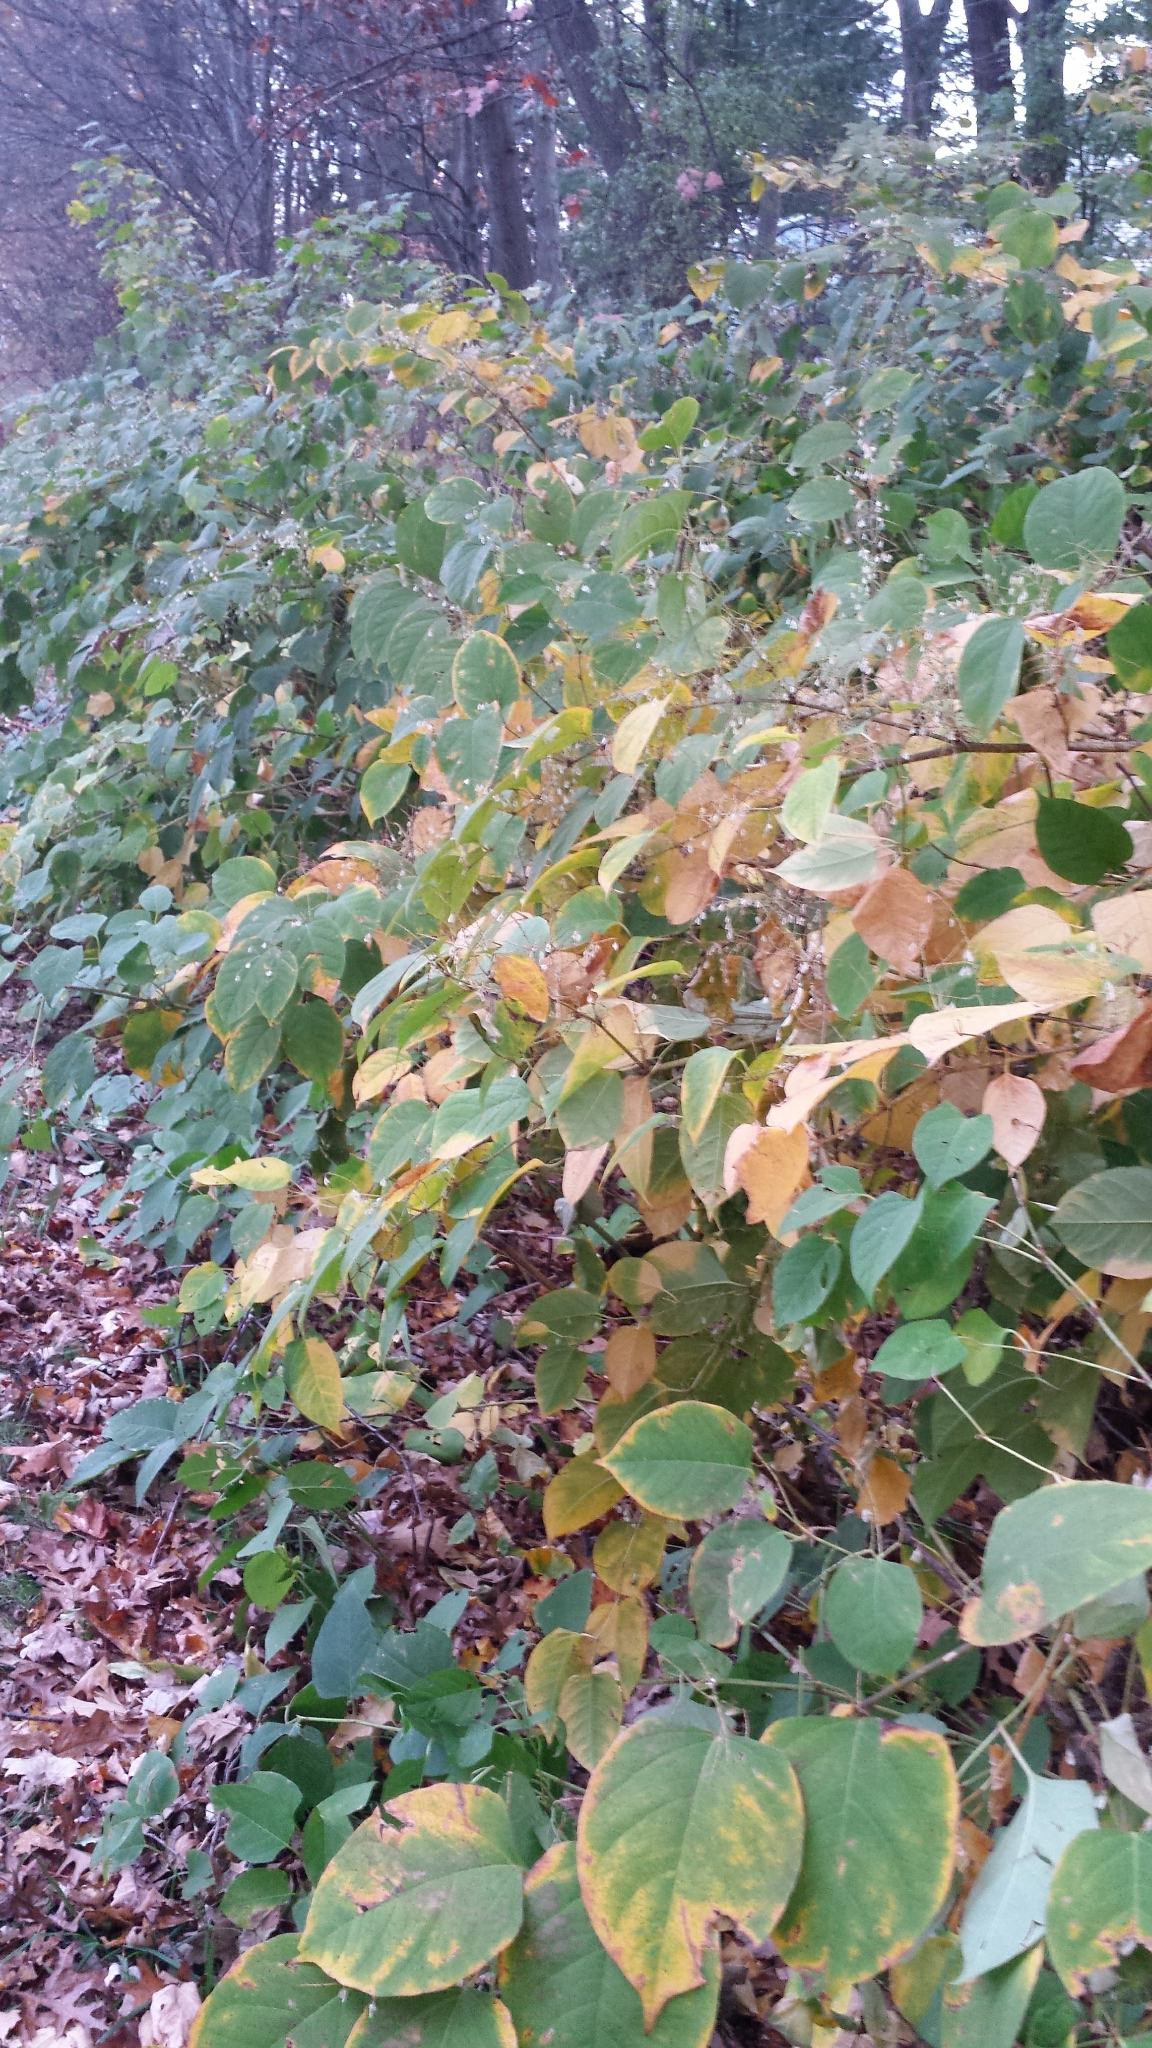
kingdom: Plantae
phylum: Tracheophyta
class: Magnoliopsida
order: Caryophyllales
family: Polygonaceae
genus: Reynoutria
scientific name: Reynoutria japonica
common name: Japanese knotweed
